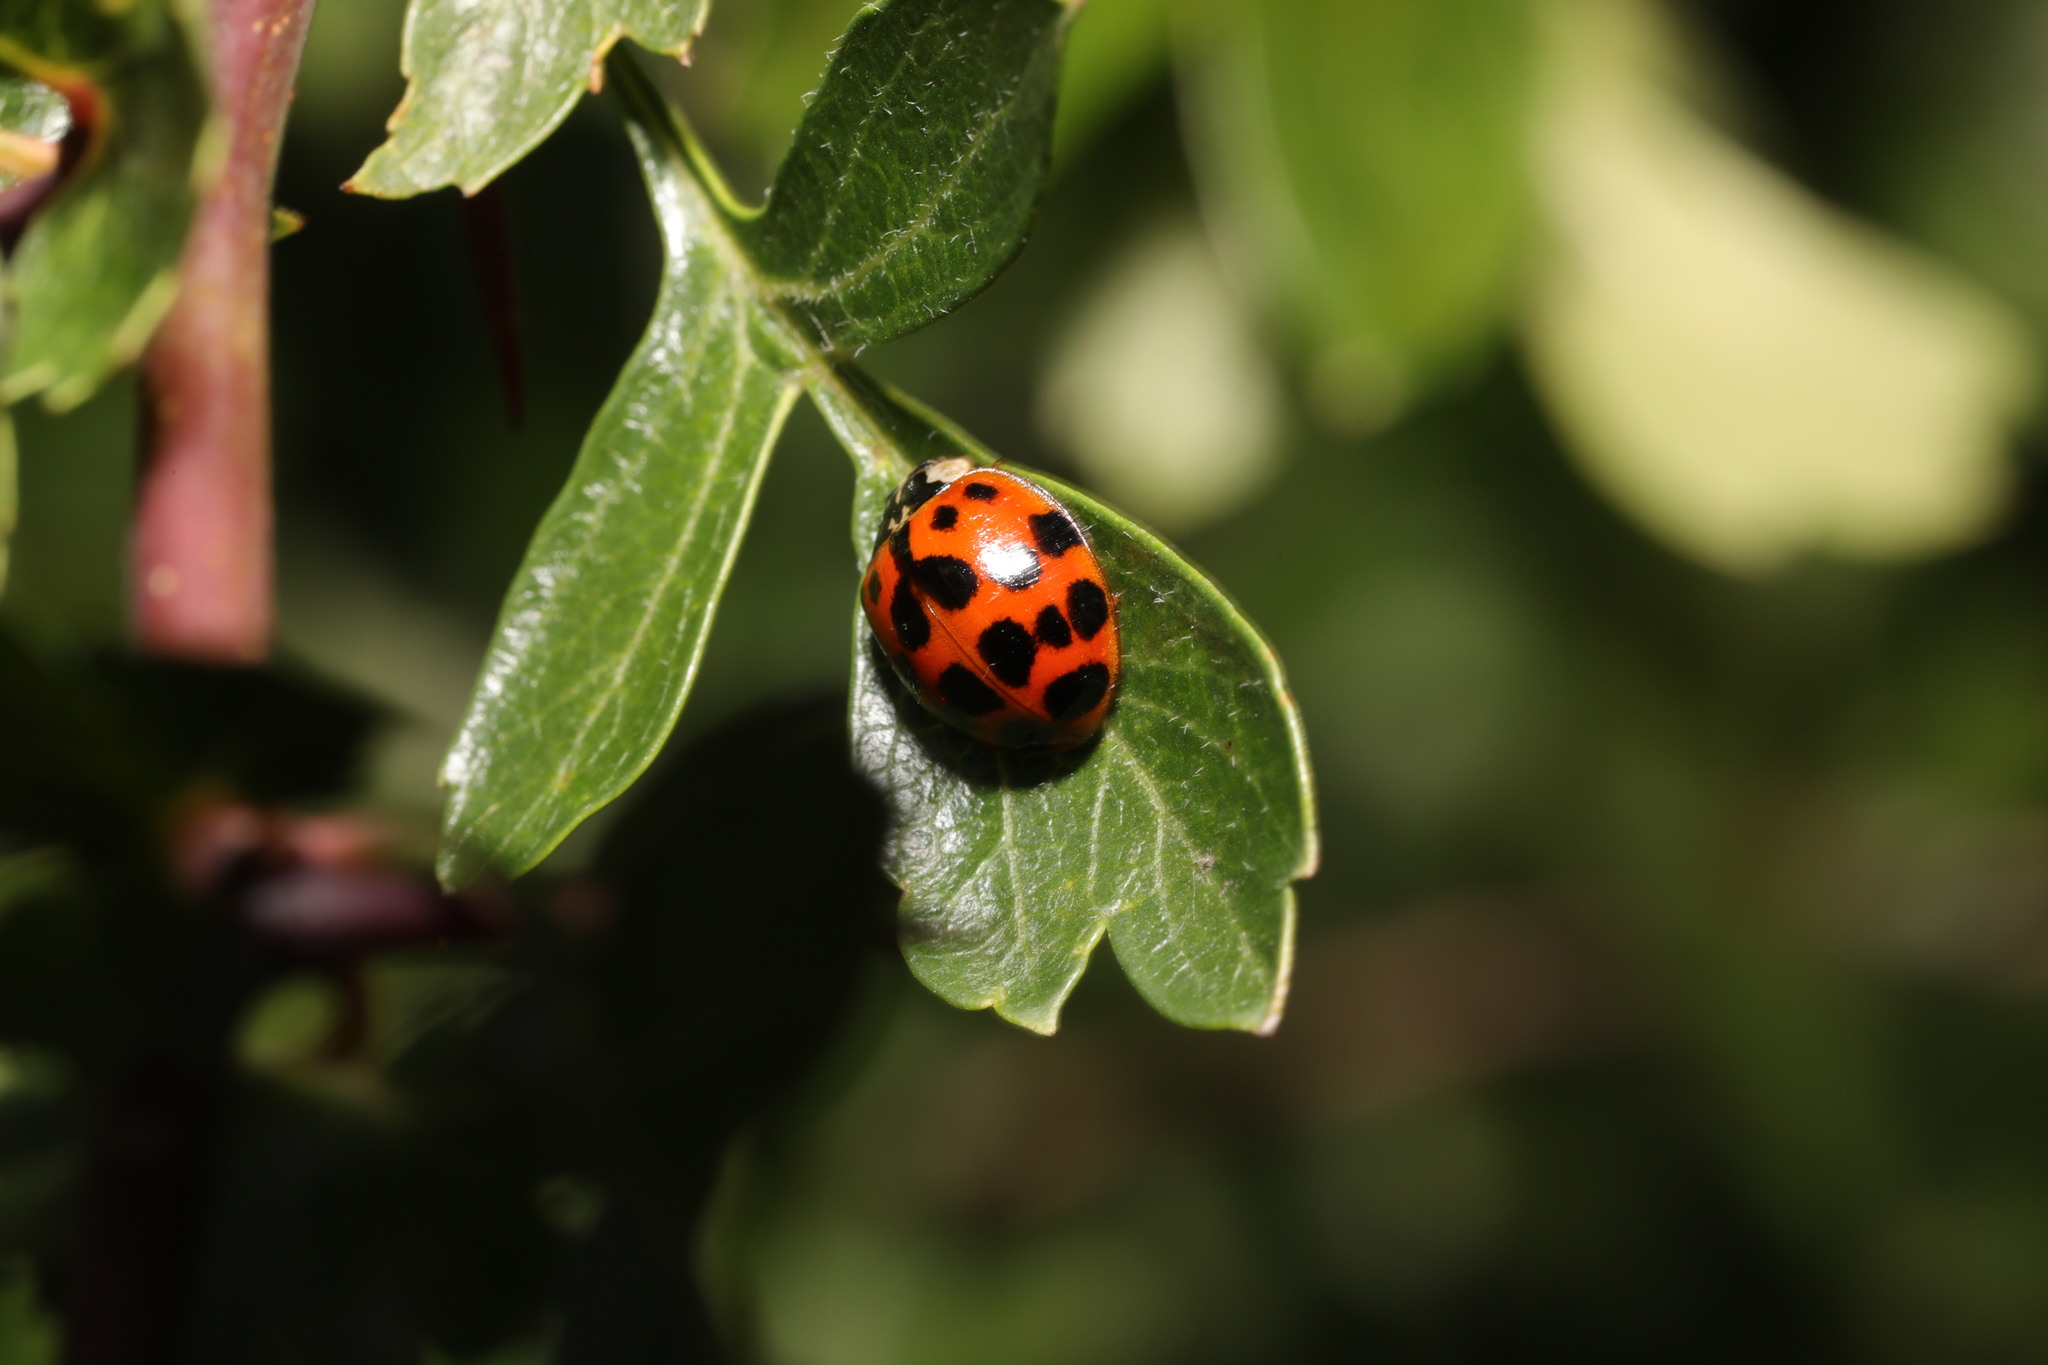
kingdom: Animalia
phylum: Arthropoda
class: Insecta
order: Coleoptera
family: Coccinellidae
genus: Harmonia
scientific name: Harmonia axyridis
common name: Harlequin ladybird
